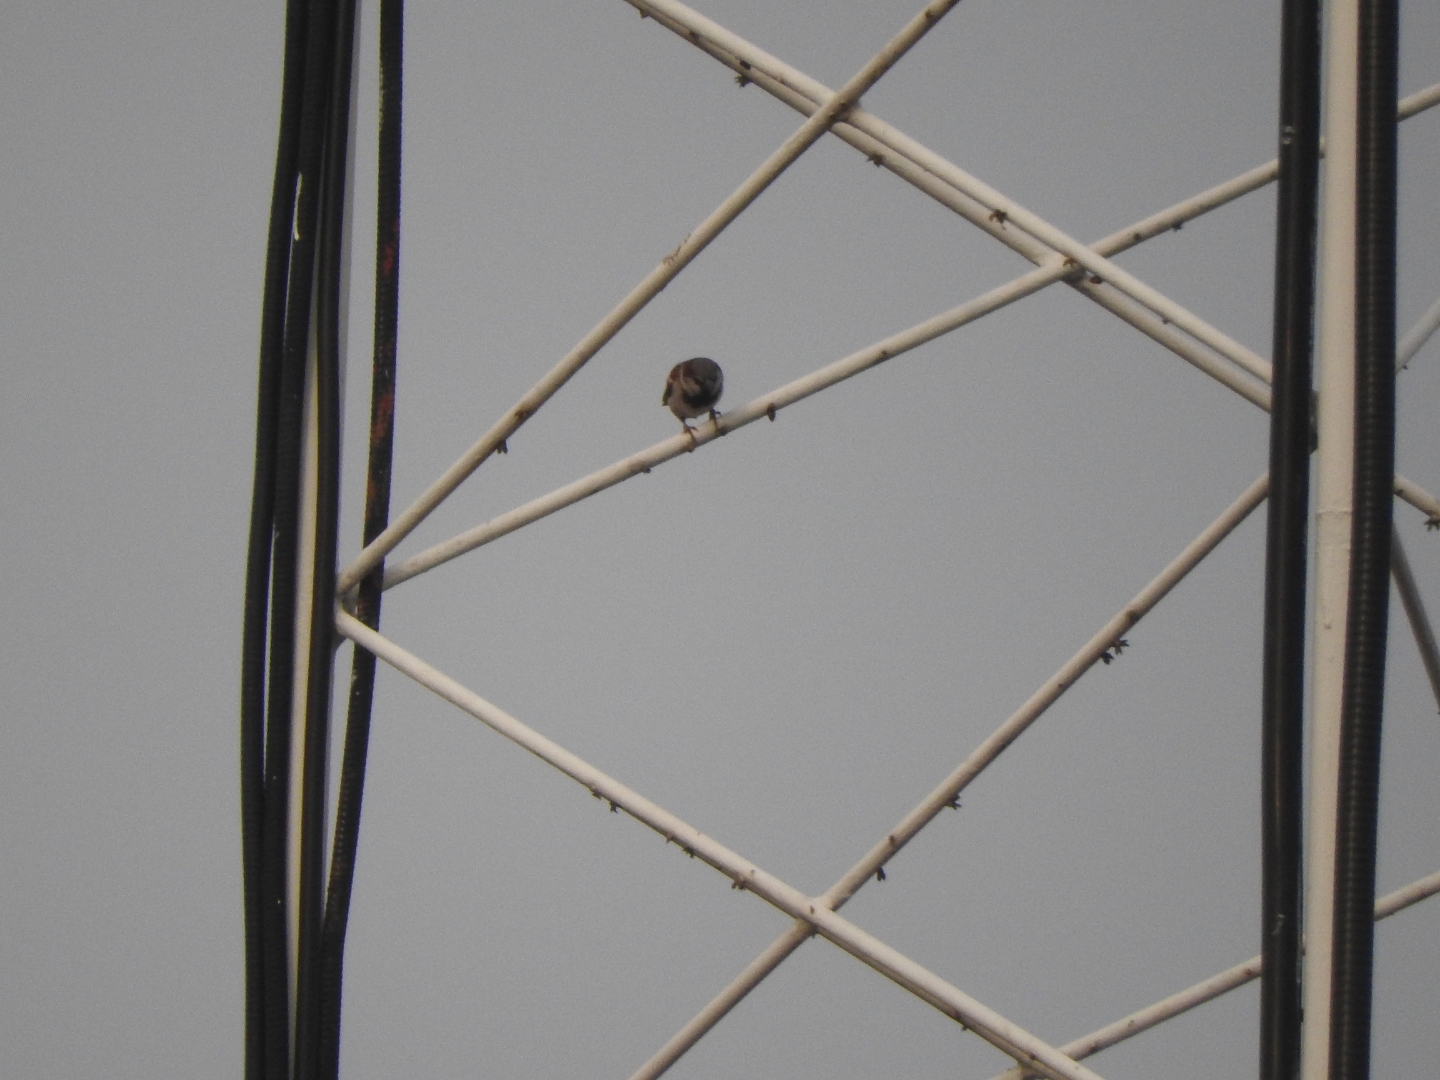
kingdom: Animalia
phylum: Chordata
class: Aves
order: Passeriformes
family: Passeridae
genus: Passer
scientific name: Passer domesticus
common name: House sparrow
